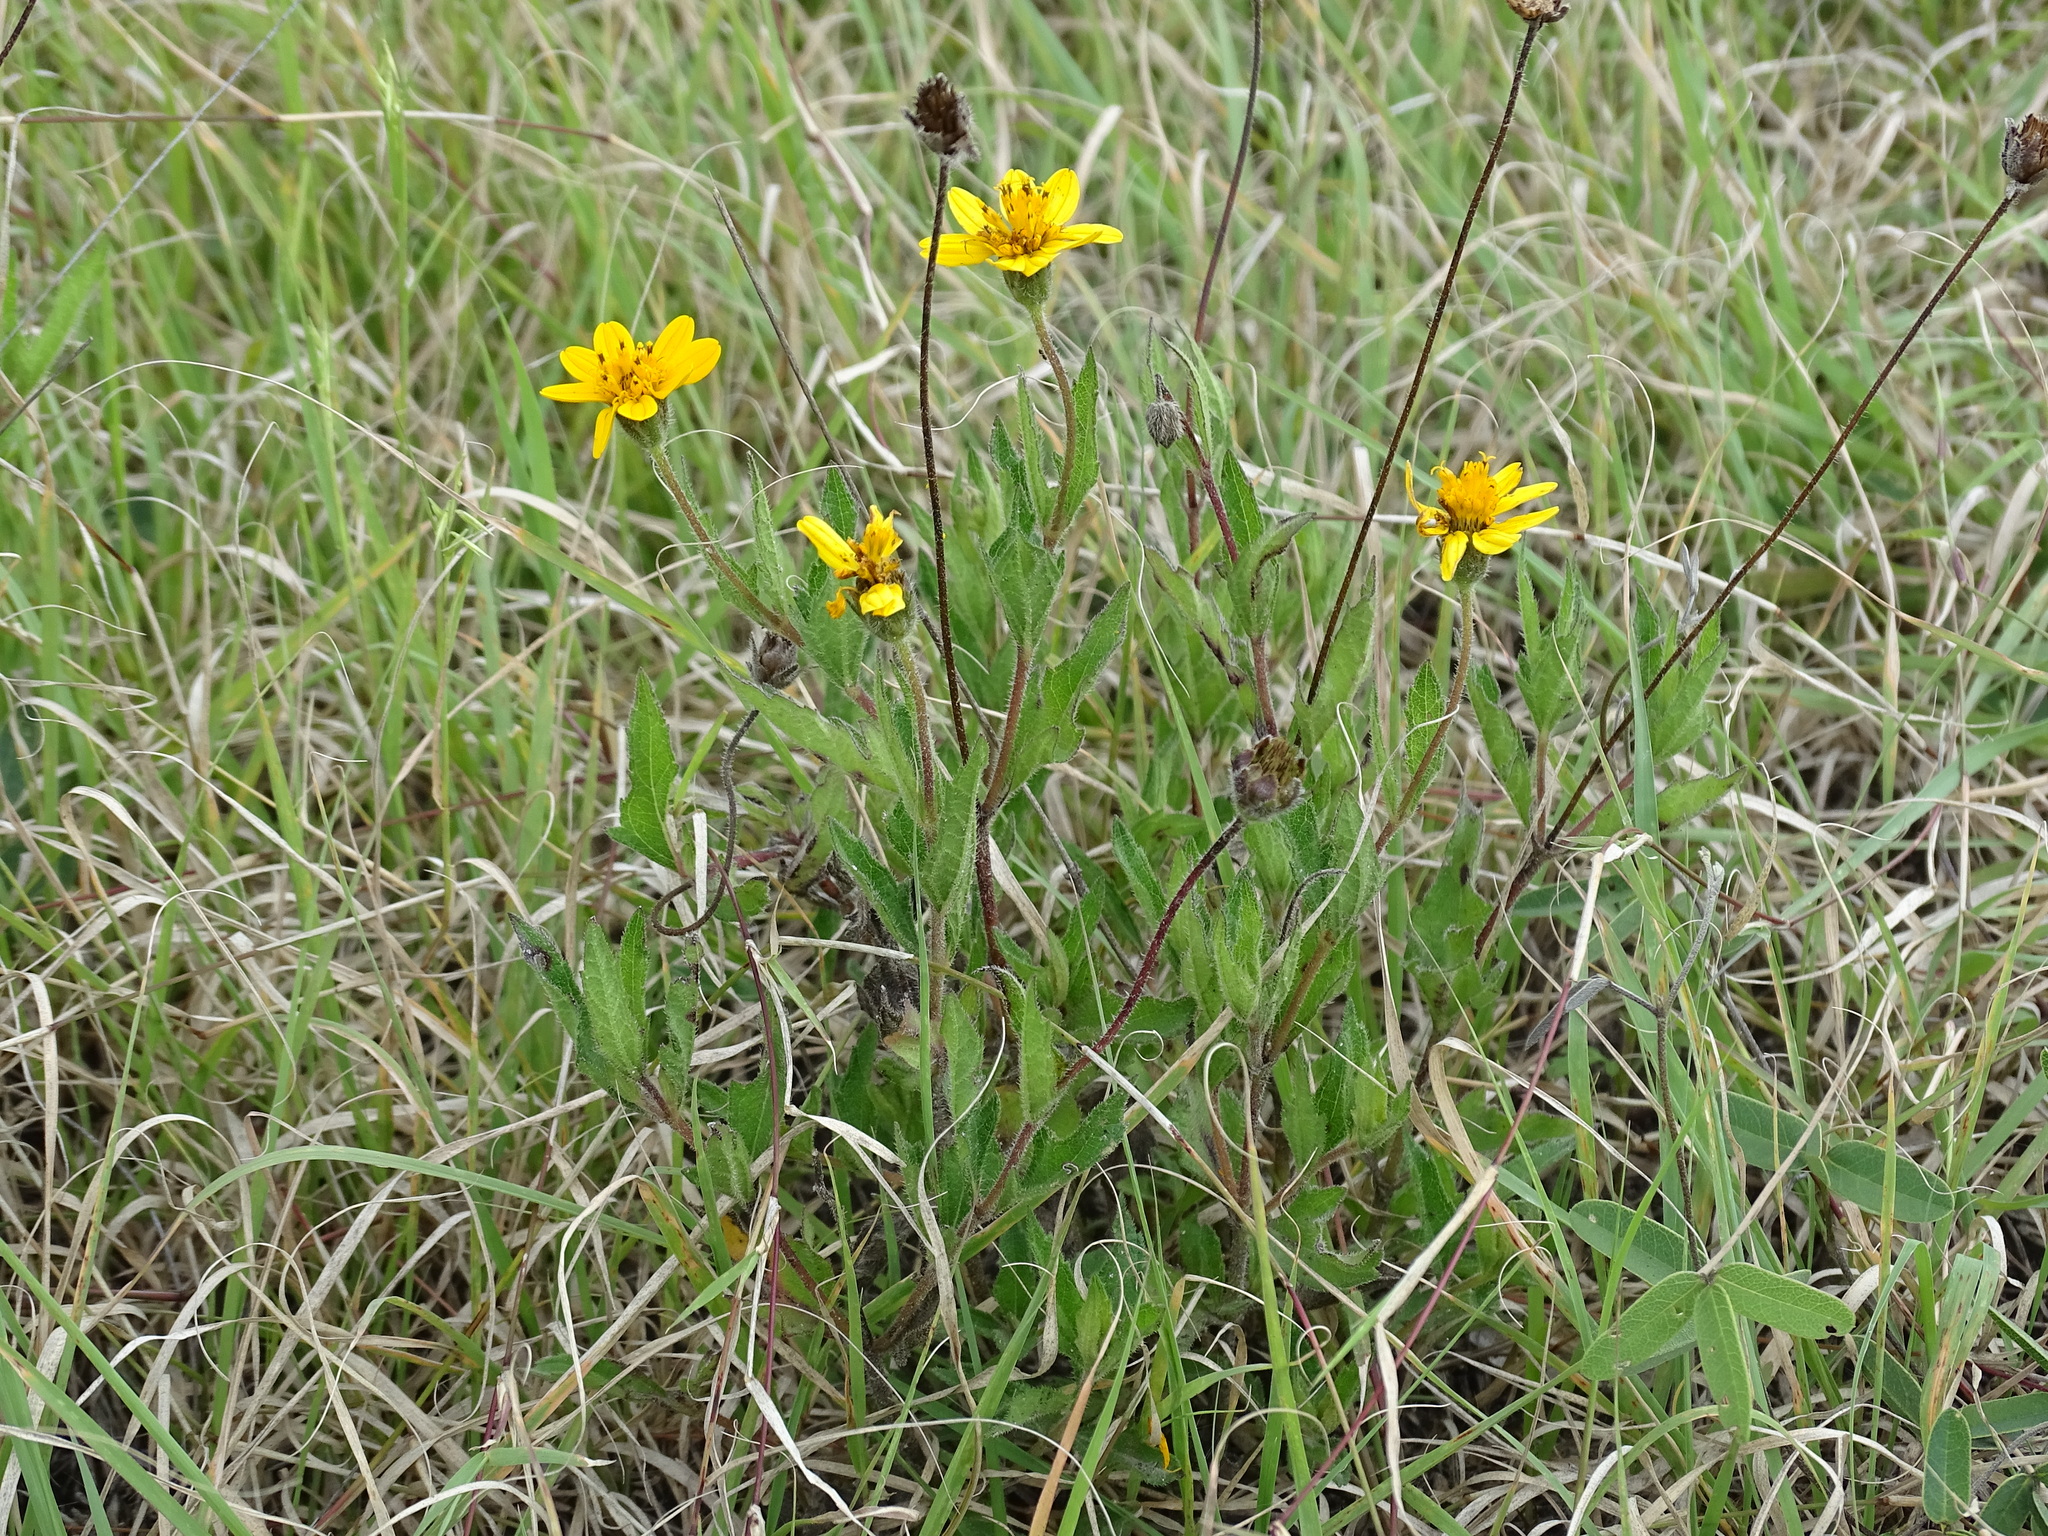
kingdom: Plantae
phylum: Tracheophyta
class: Magnoliopsida
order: Asterales
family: Asteraceae
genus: Wedelia
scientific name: Wedelia acapulcensis
